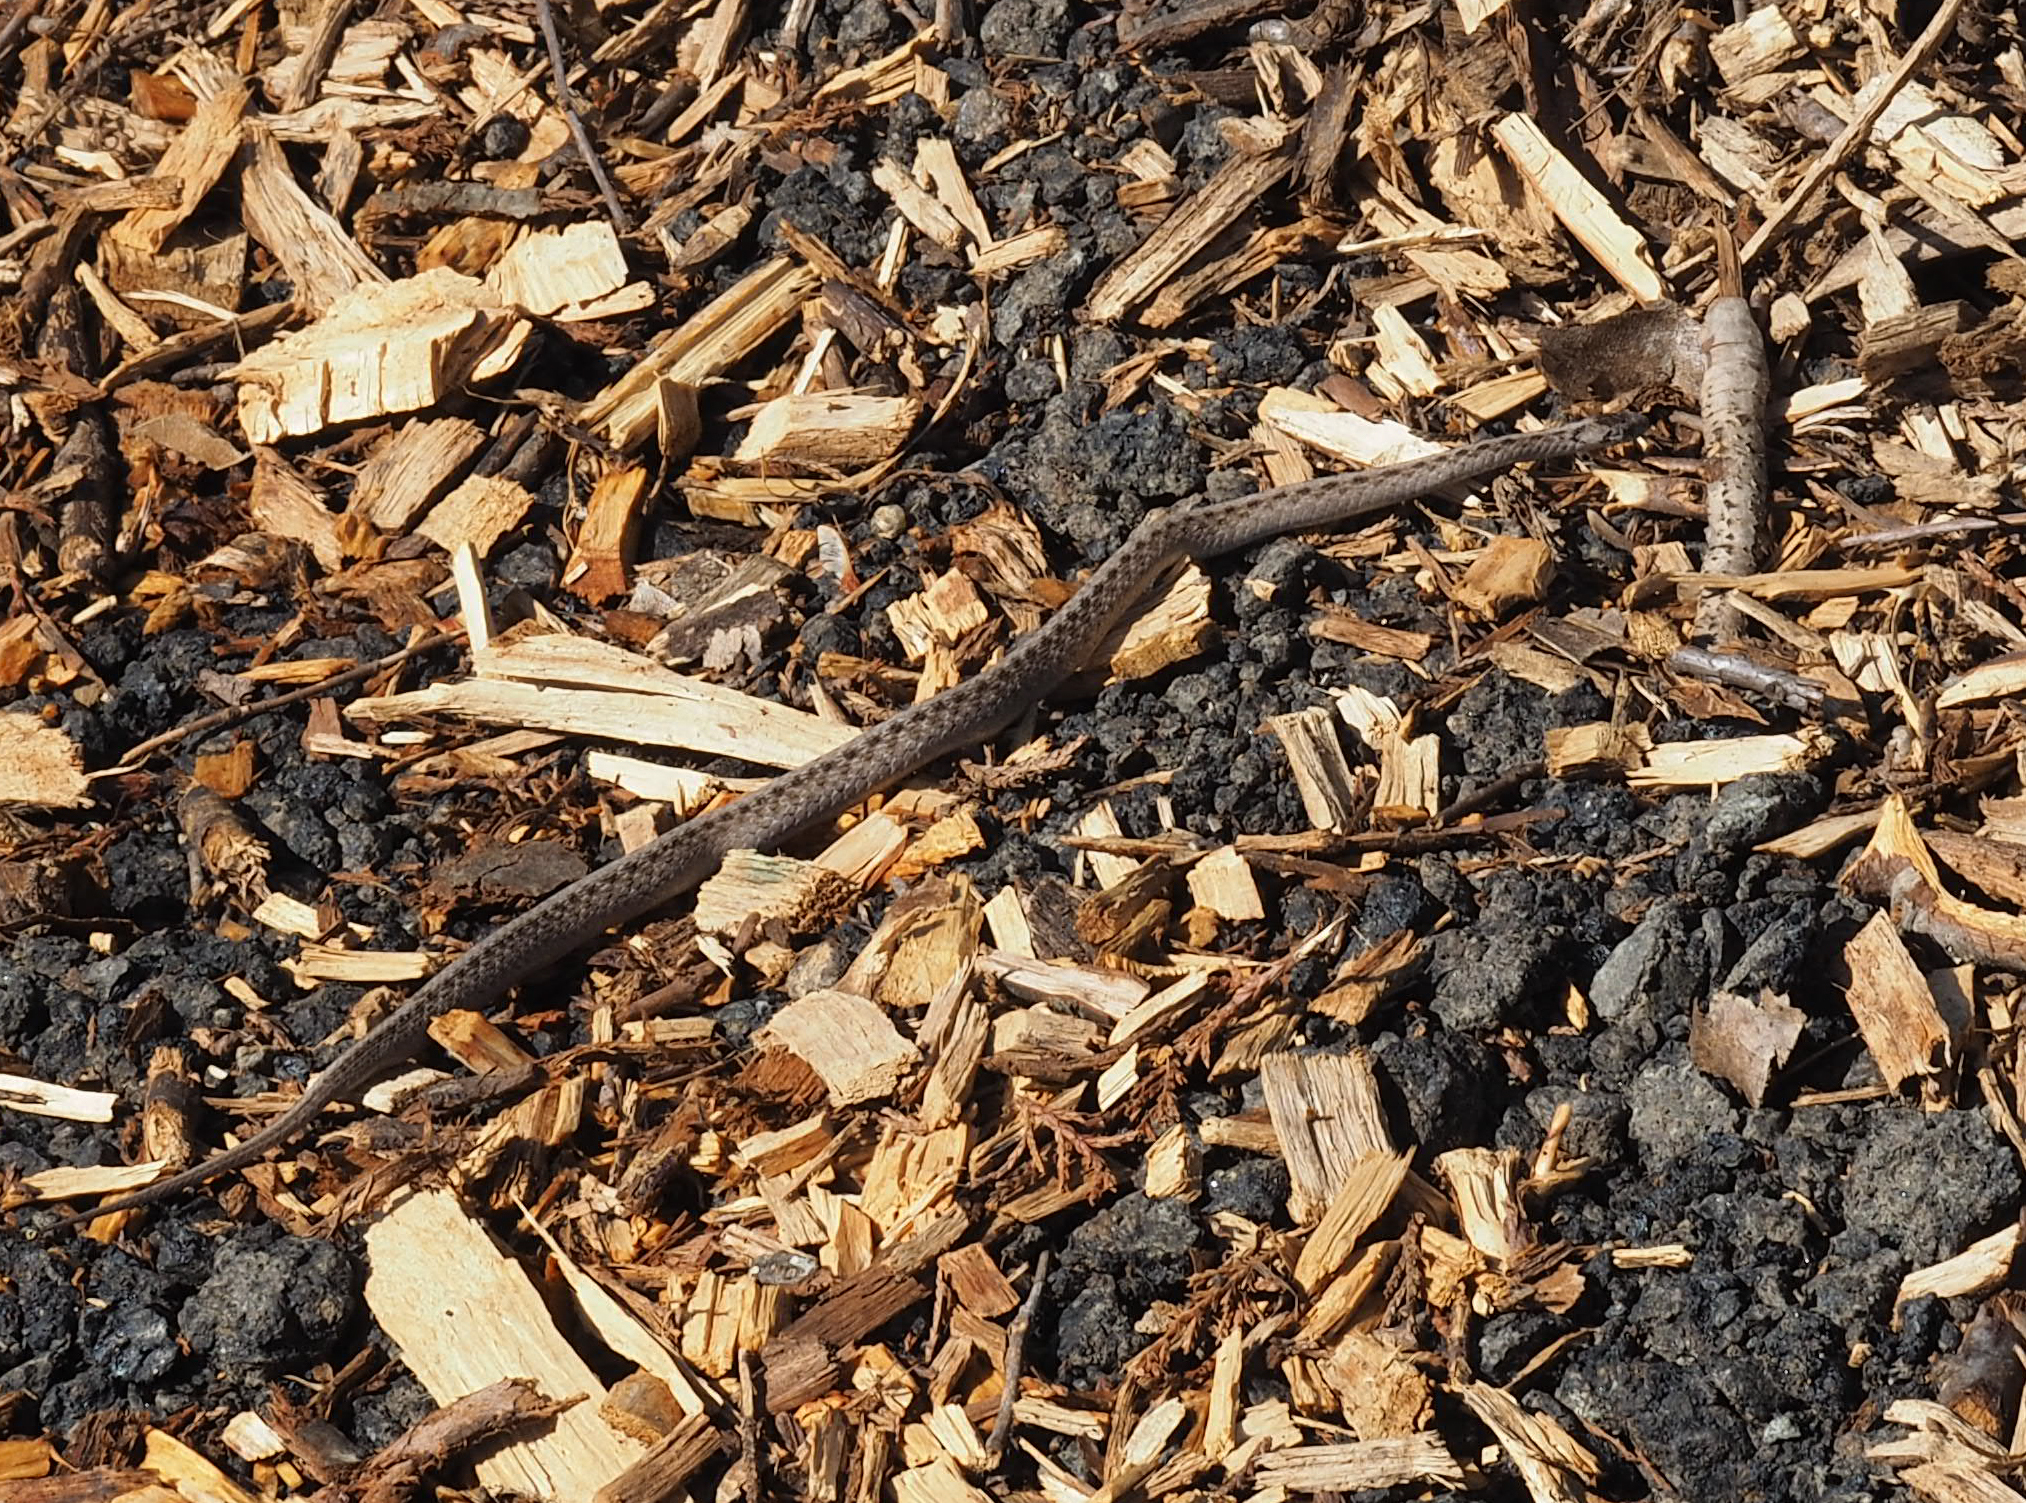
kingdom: Animalia
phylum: Chordata
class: Squamata
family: Colubridae
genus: Storeria
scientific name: Storeria dekayi
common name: (dekay’s) brown snake
